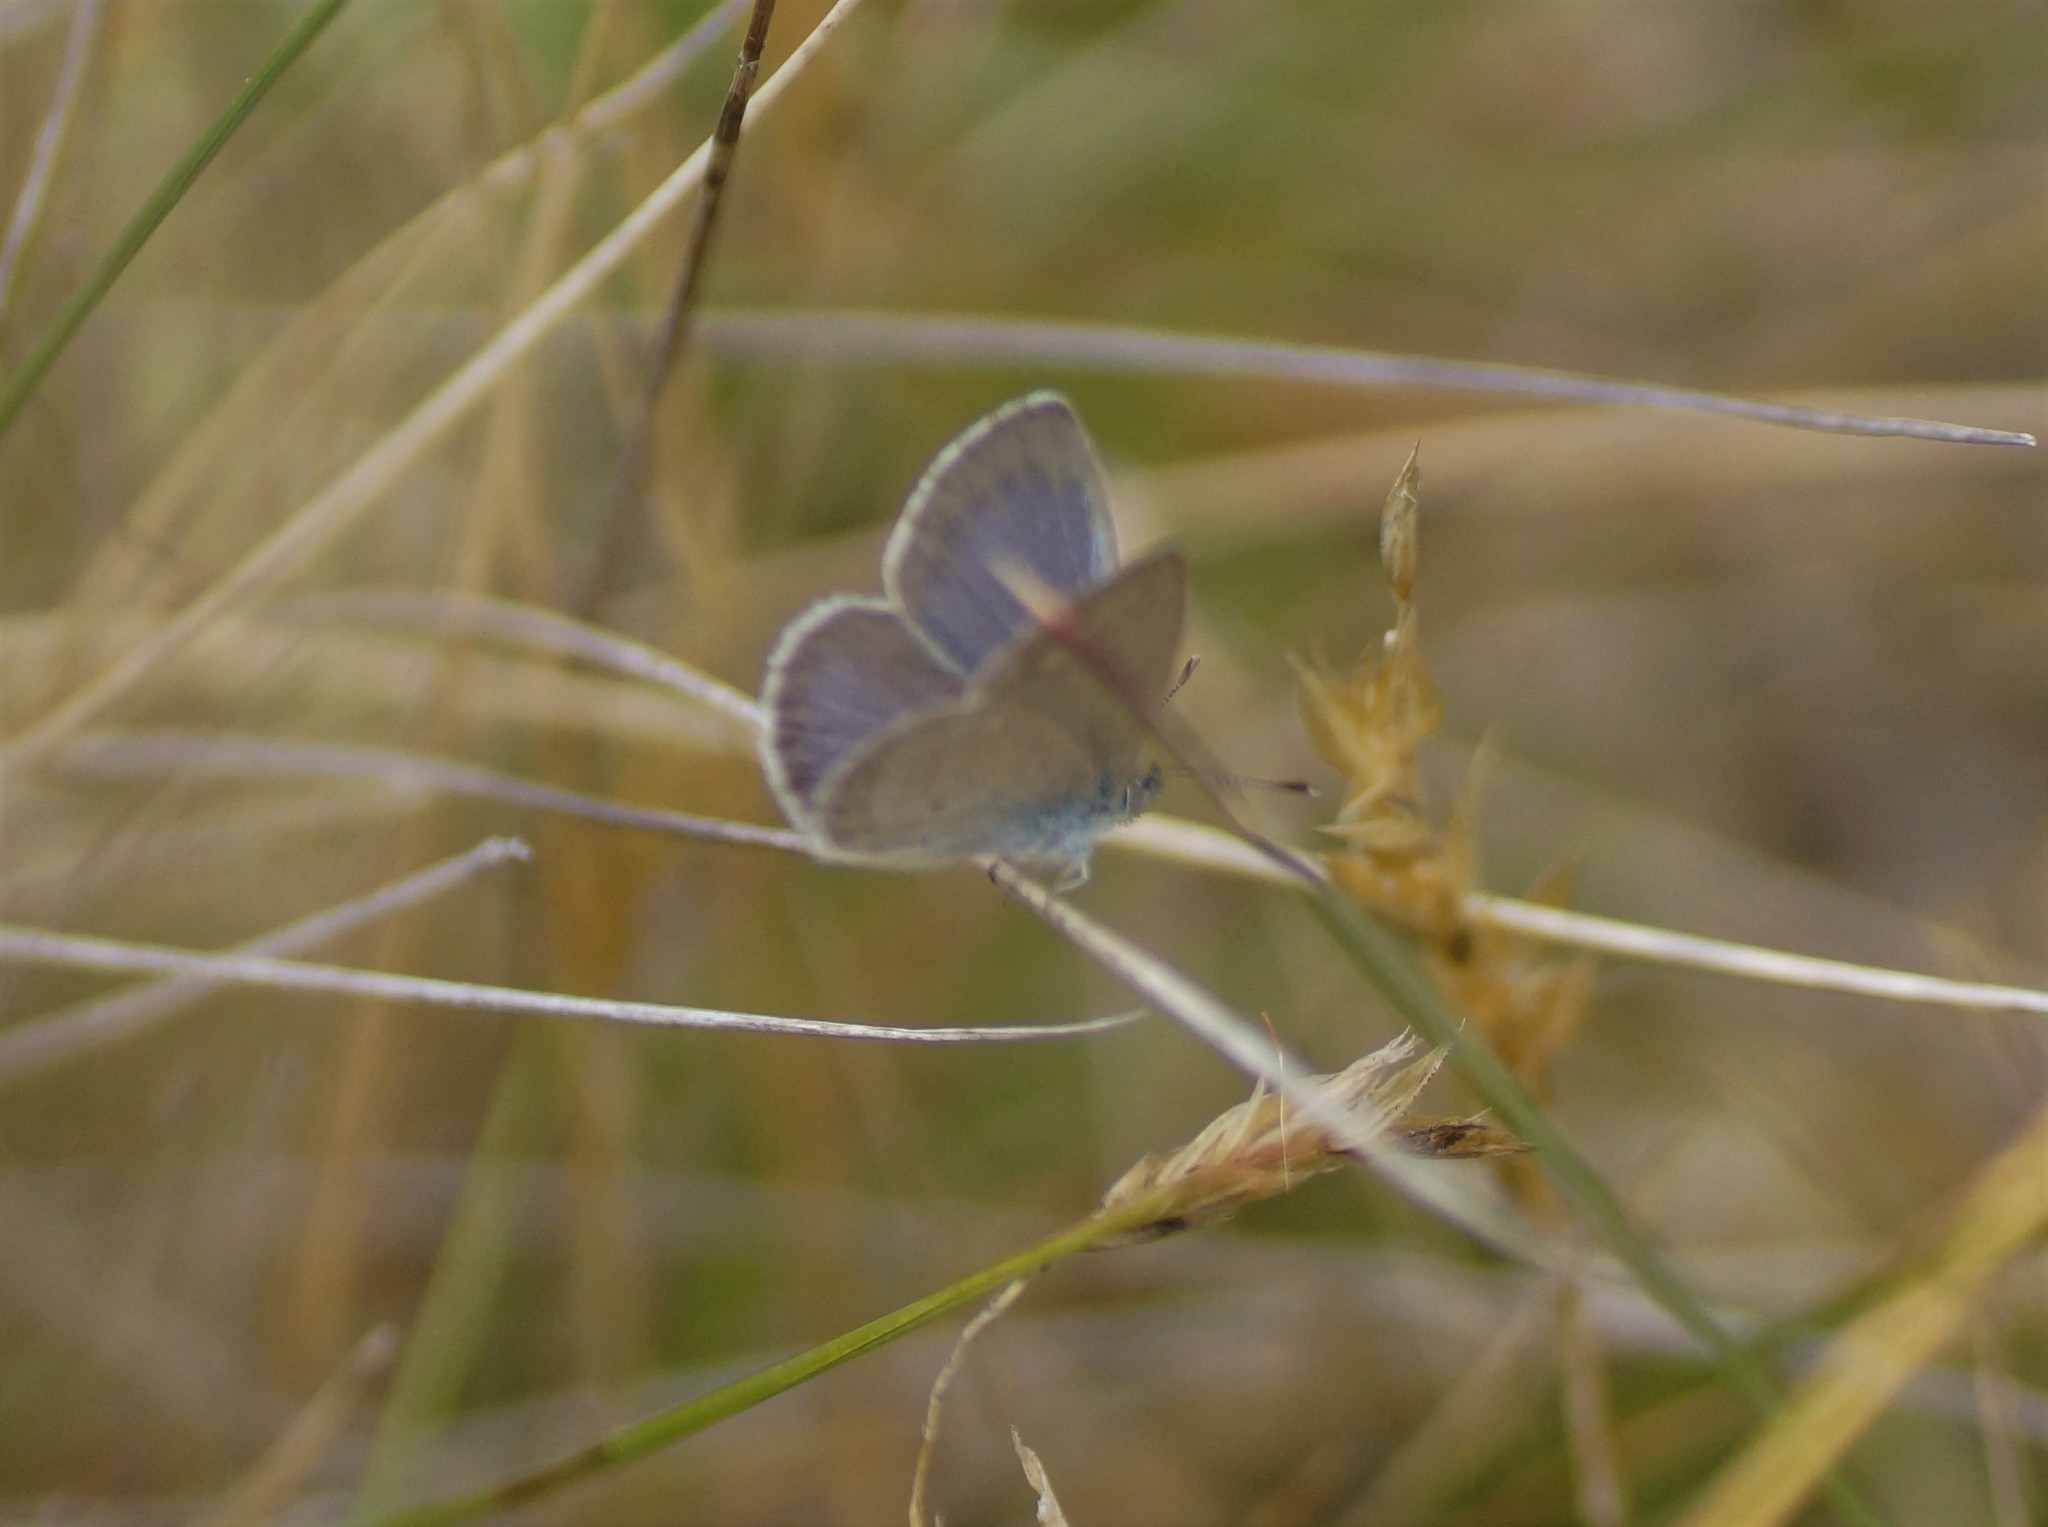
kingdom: Animalia
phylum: Arthropoda
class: Insecta
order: Lepidoptera
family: Lycaenidae
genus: Zizina
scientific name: Zizina labradus
